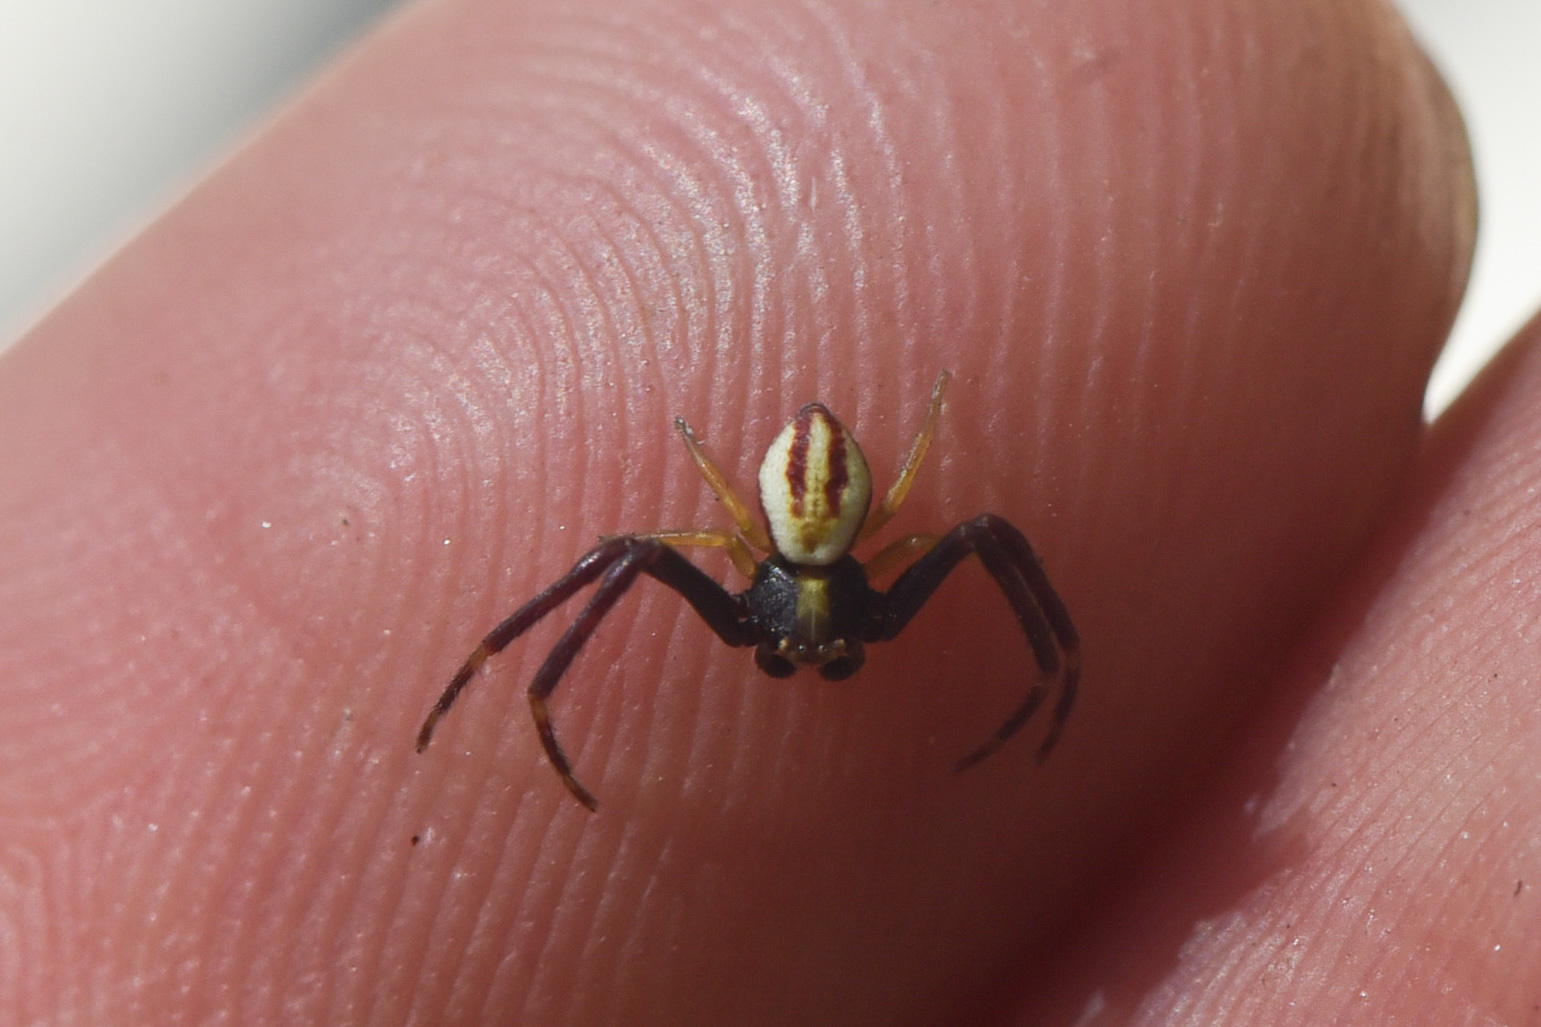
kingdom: Animalia
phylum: Arthropoda
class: Arachnida
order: Araneae
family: Thomisidae
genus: Misumena
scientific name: Misumena vatia
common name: Goldenrod crab spider
